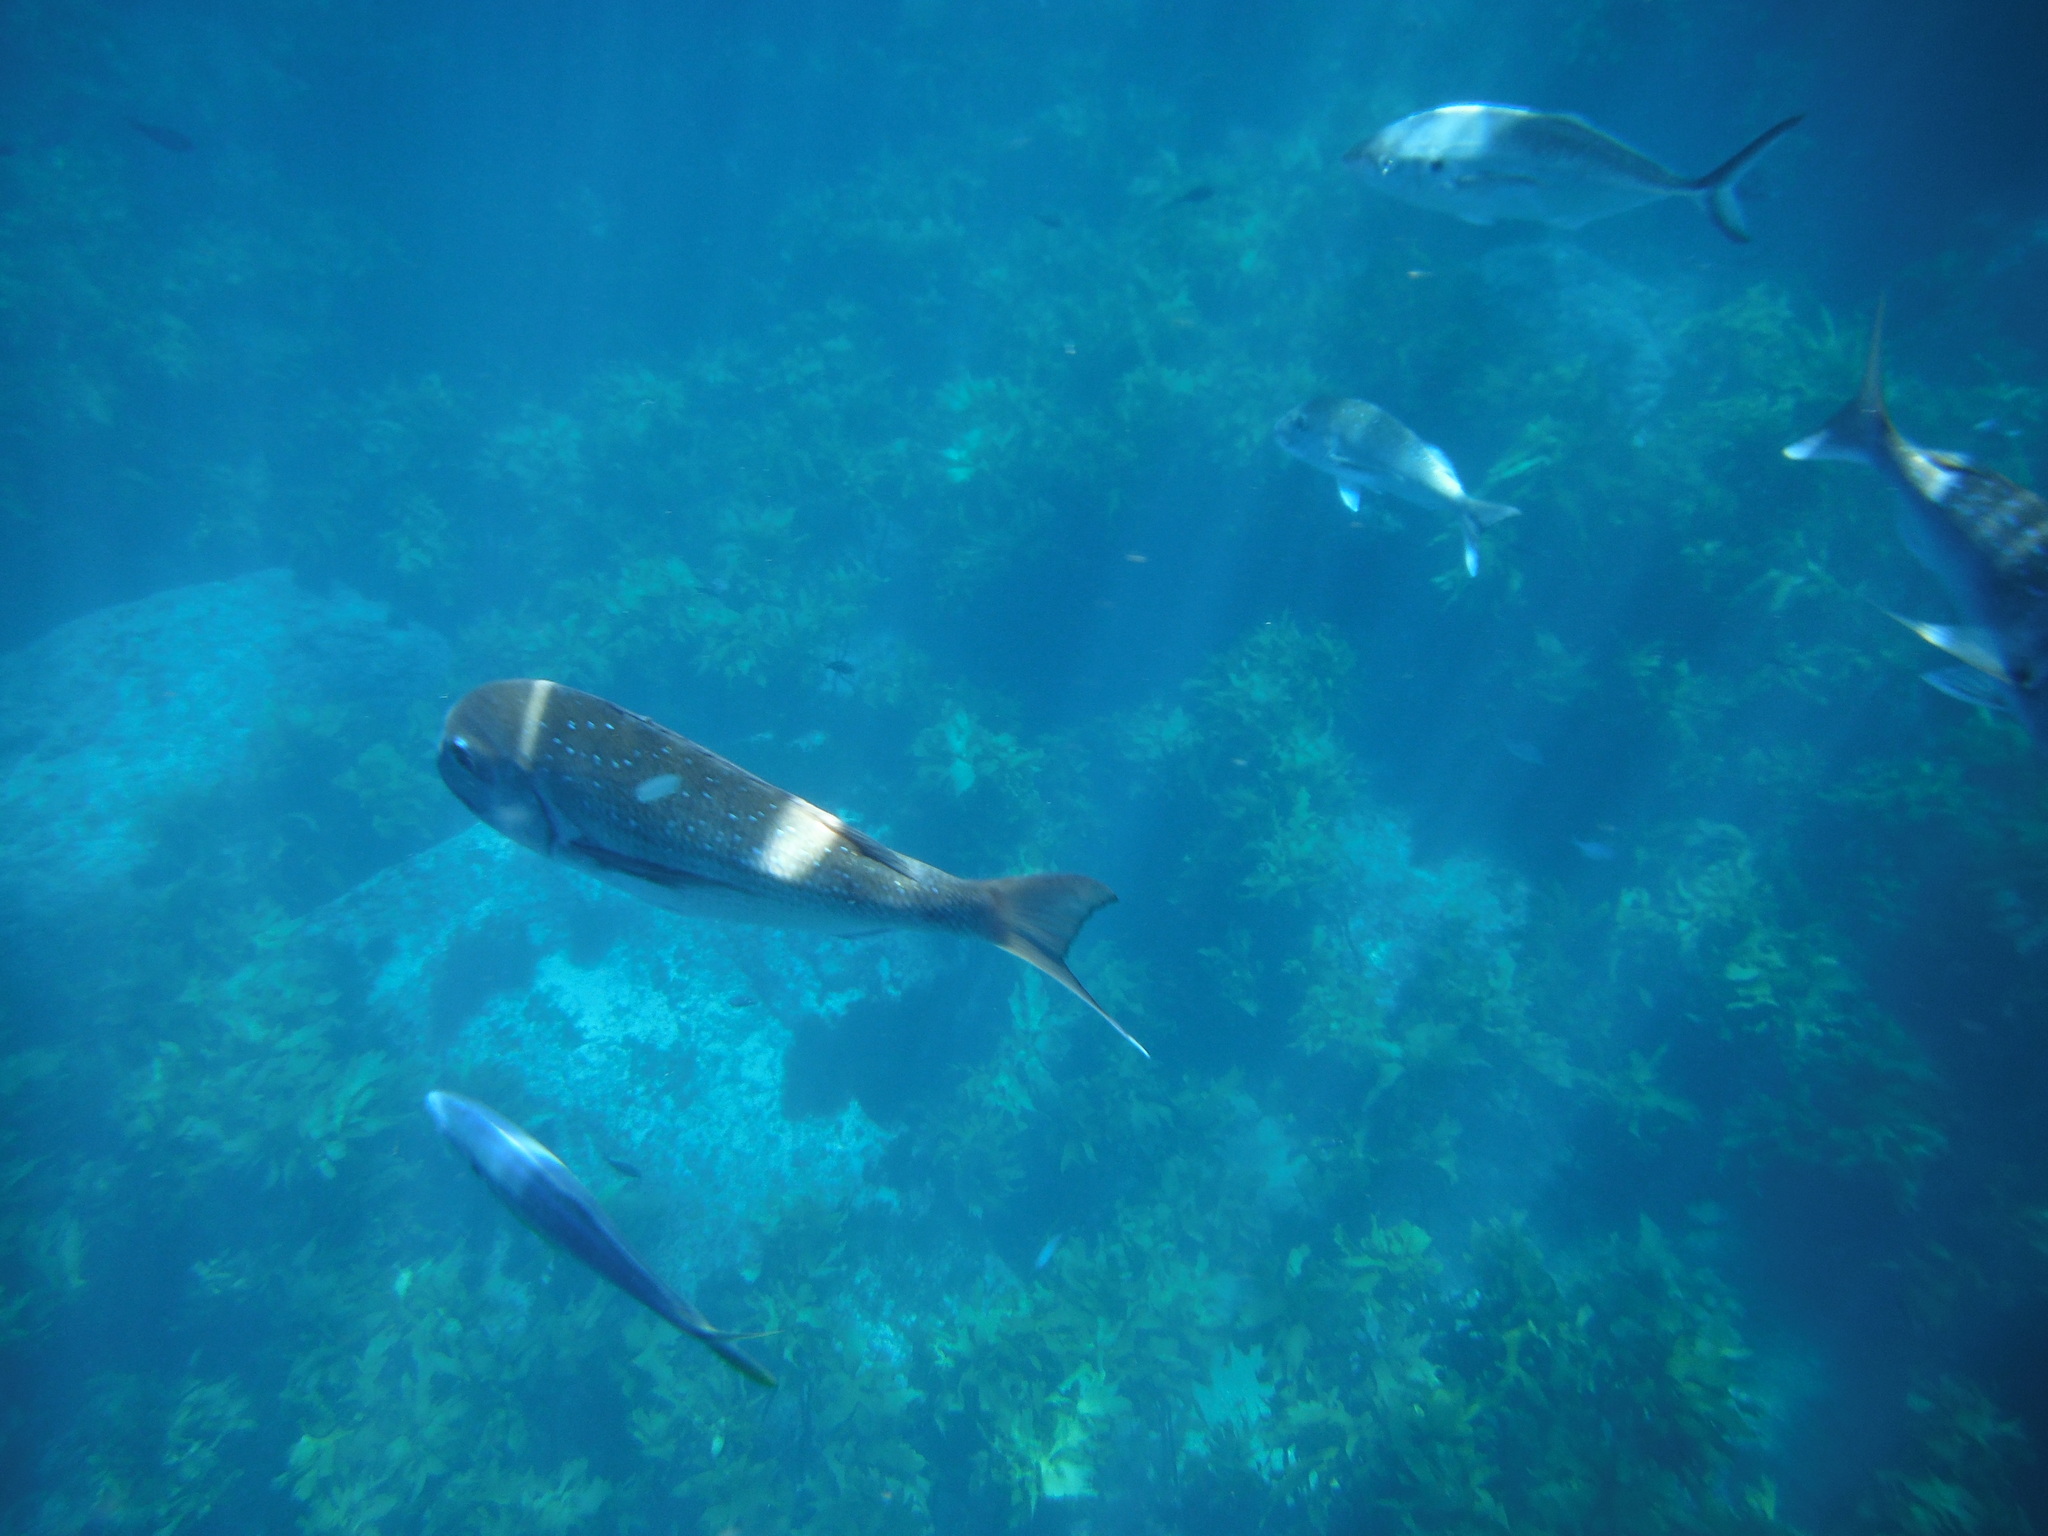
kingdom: Animalia
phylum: Chordata
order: Perciformes
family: Sparidae
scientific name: Sparidae
